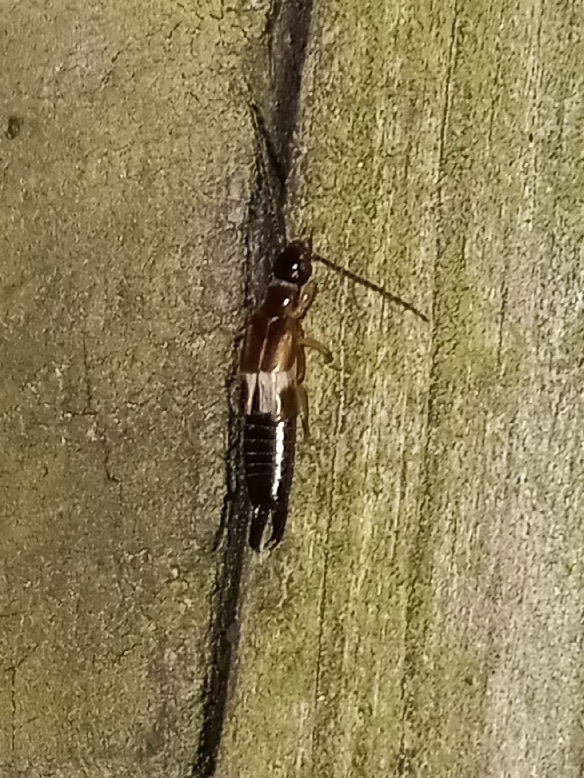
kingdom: Animalia
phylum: Arthropoda
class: Insecta
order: Dermaptera
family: Anisolabididae
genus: Euborellia
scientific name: Euborellia cincticollis
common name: African earwig
